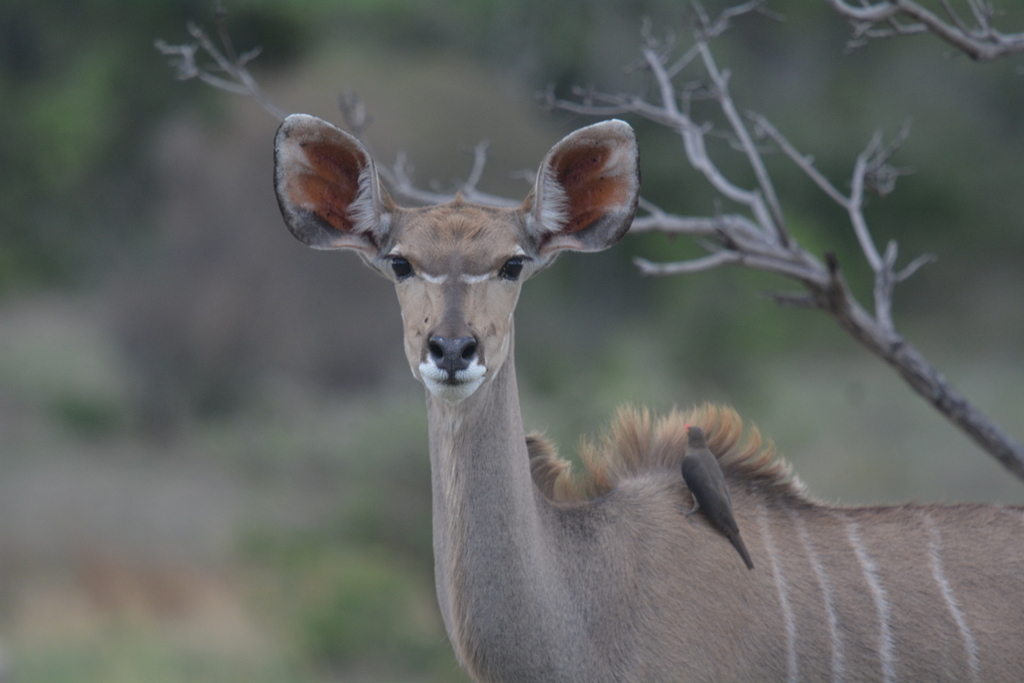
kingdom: Animalia
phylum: Chordata
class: Mammalia
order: Artiodactyla
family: Bovidae
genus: Tragelaphus
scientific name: Tragelaphus strepsiceros
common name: Greater kudu
